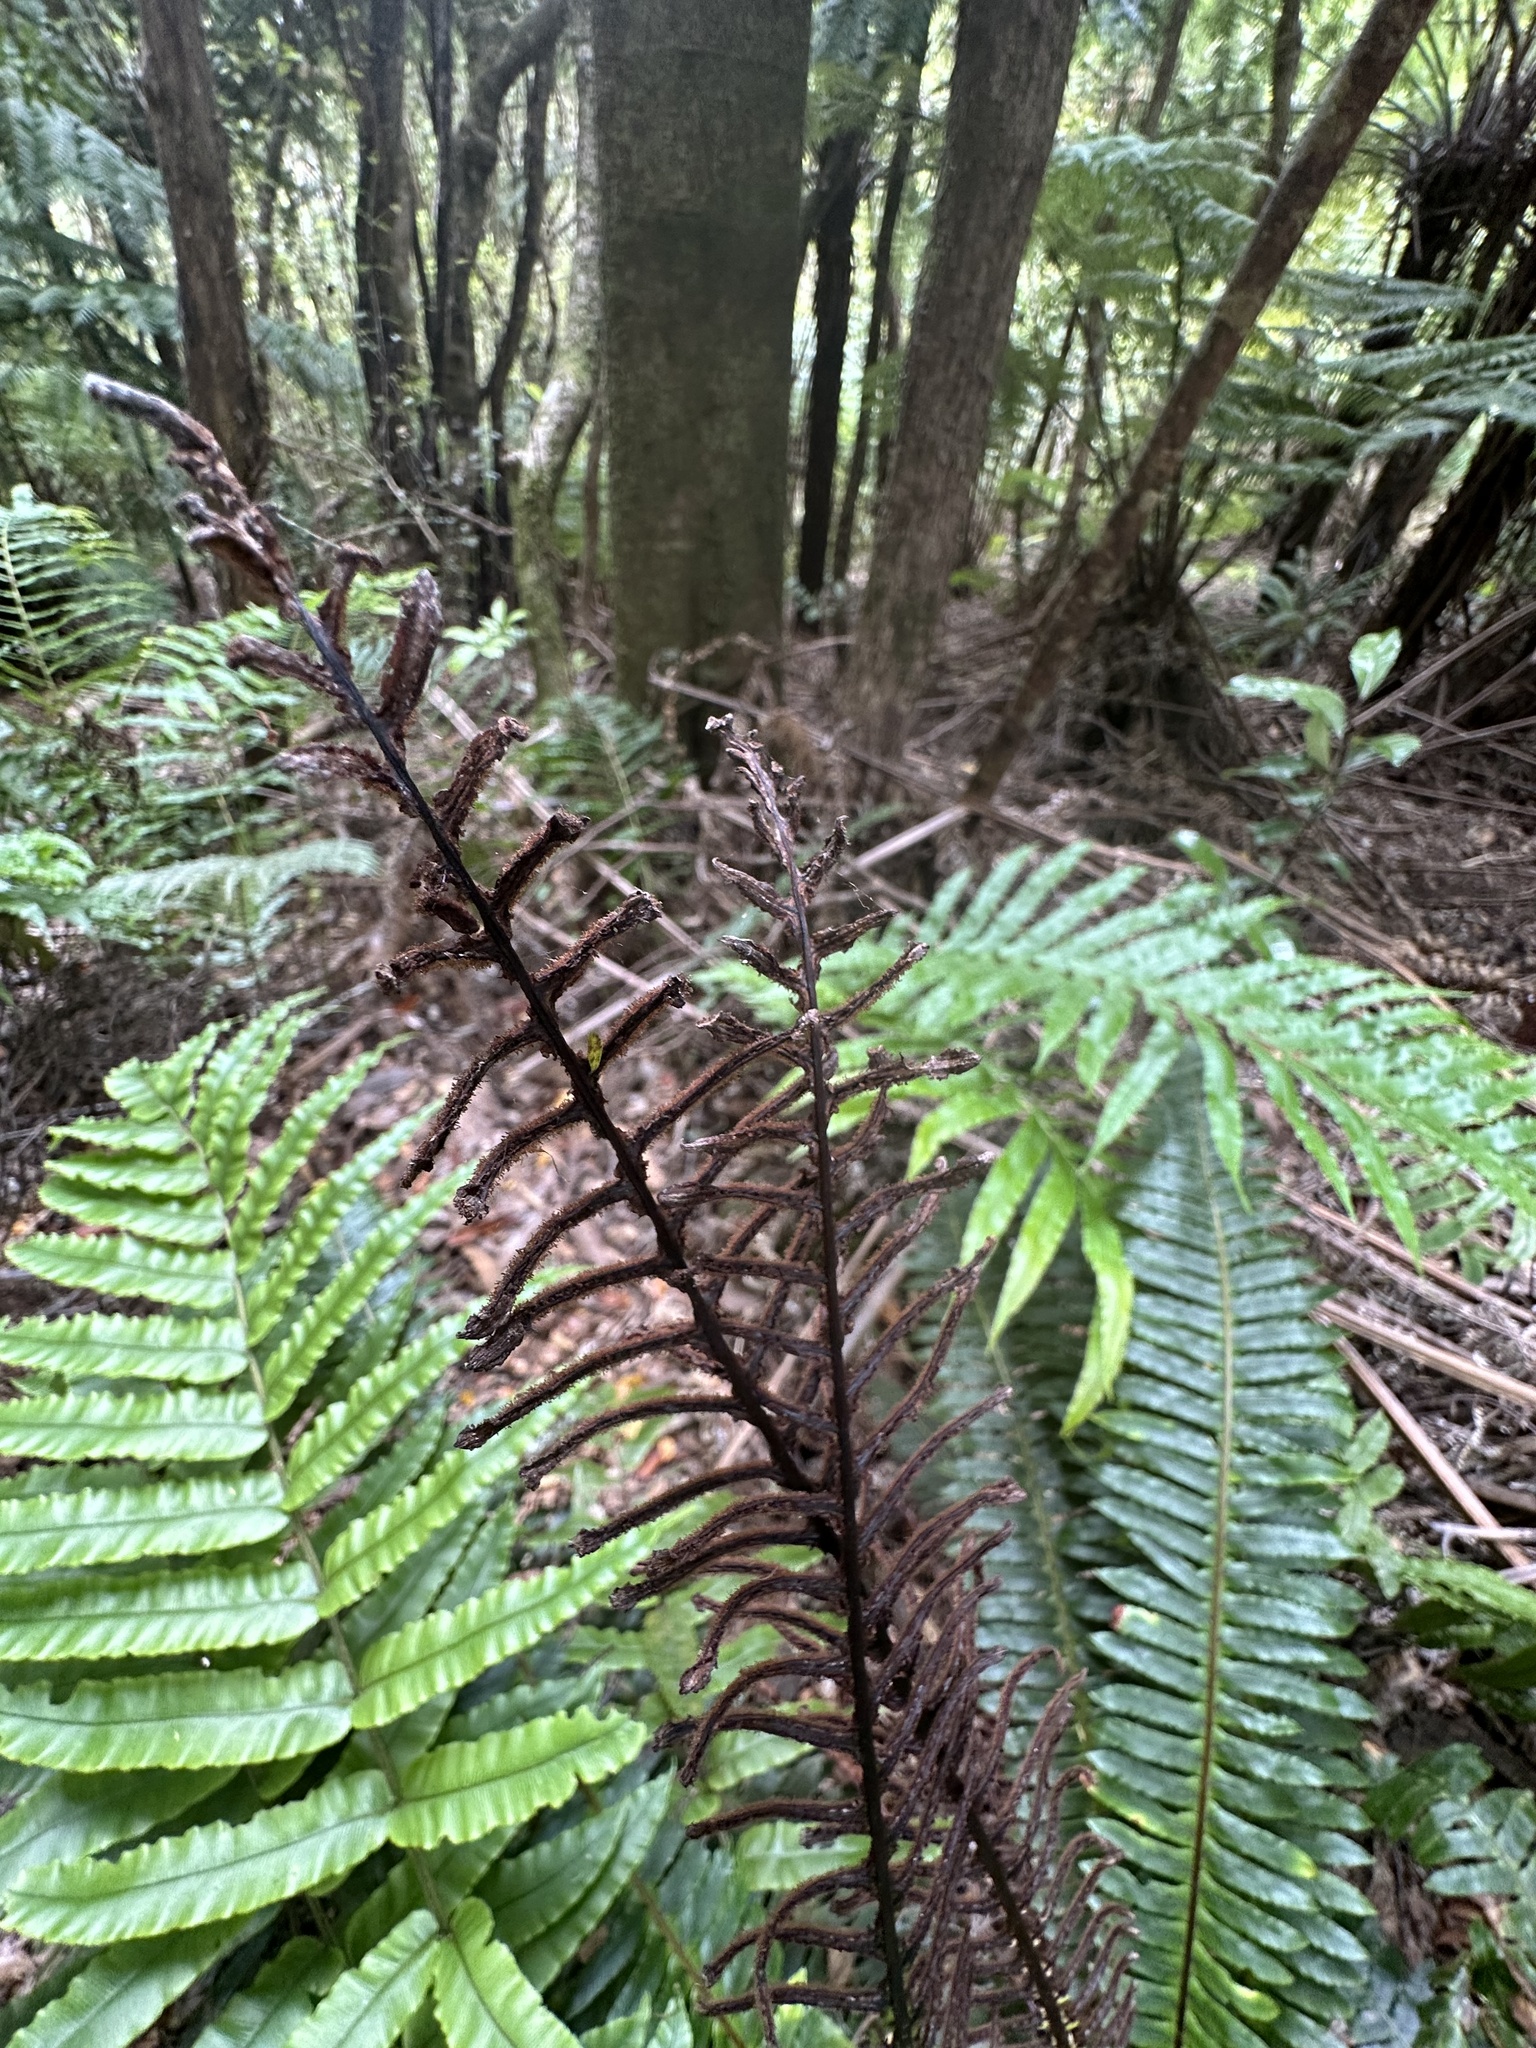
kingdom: Plantae
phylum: Tracheophyta
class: Polypodiopsida
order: Polypodiales
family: Blechnaceae
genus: Lomaria
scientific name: Lomaria discolor
